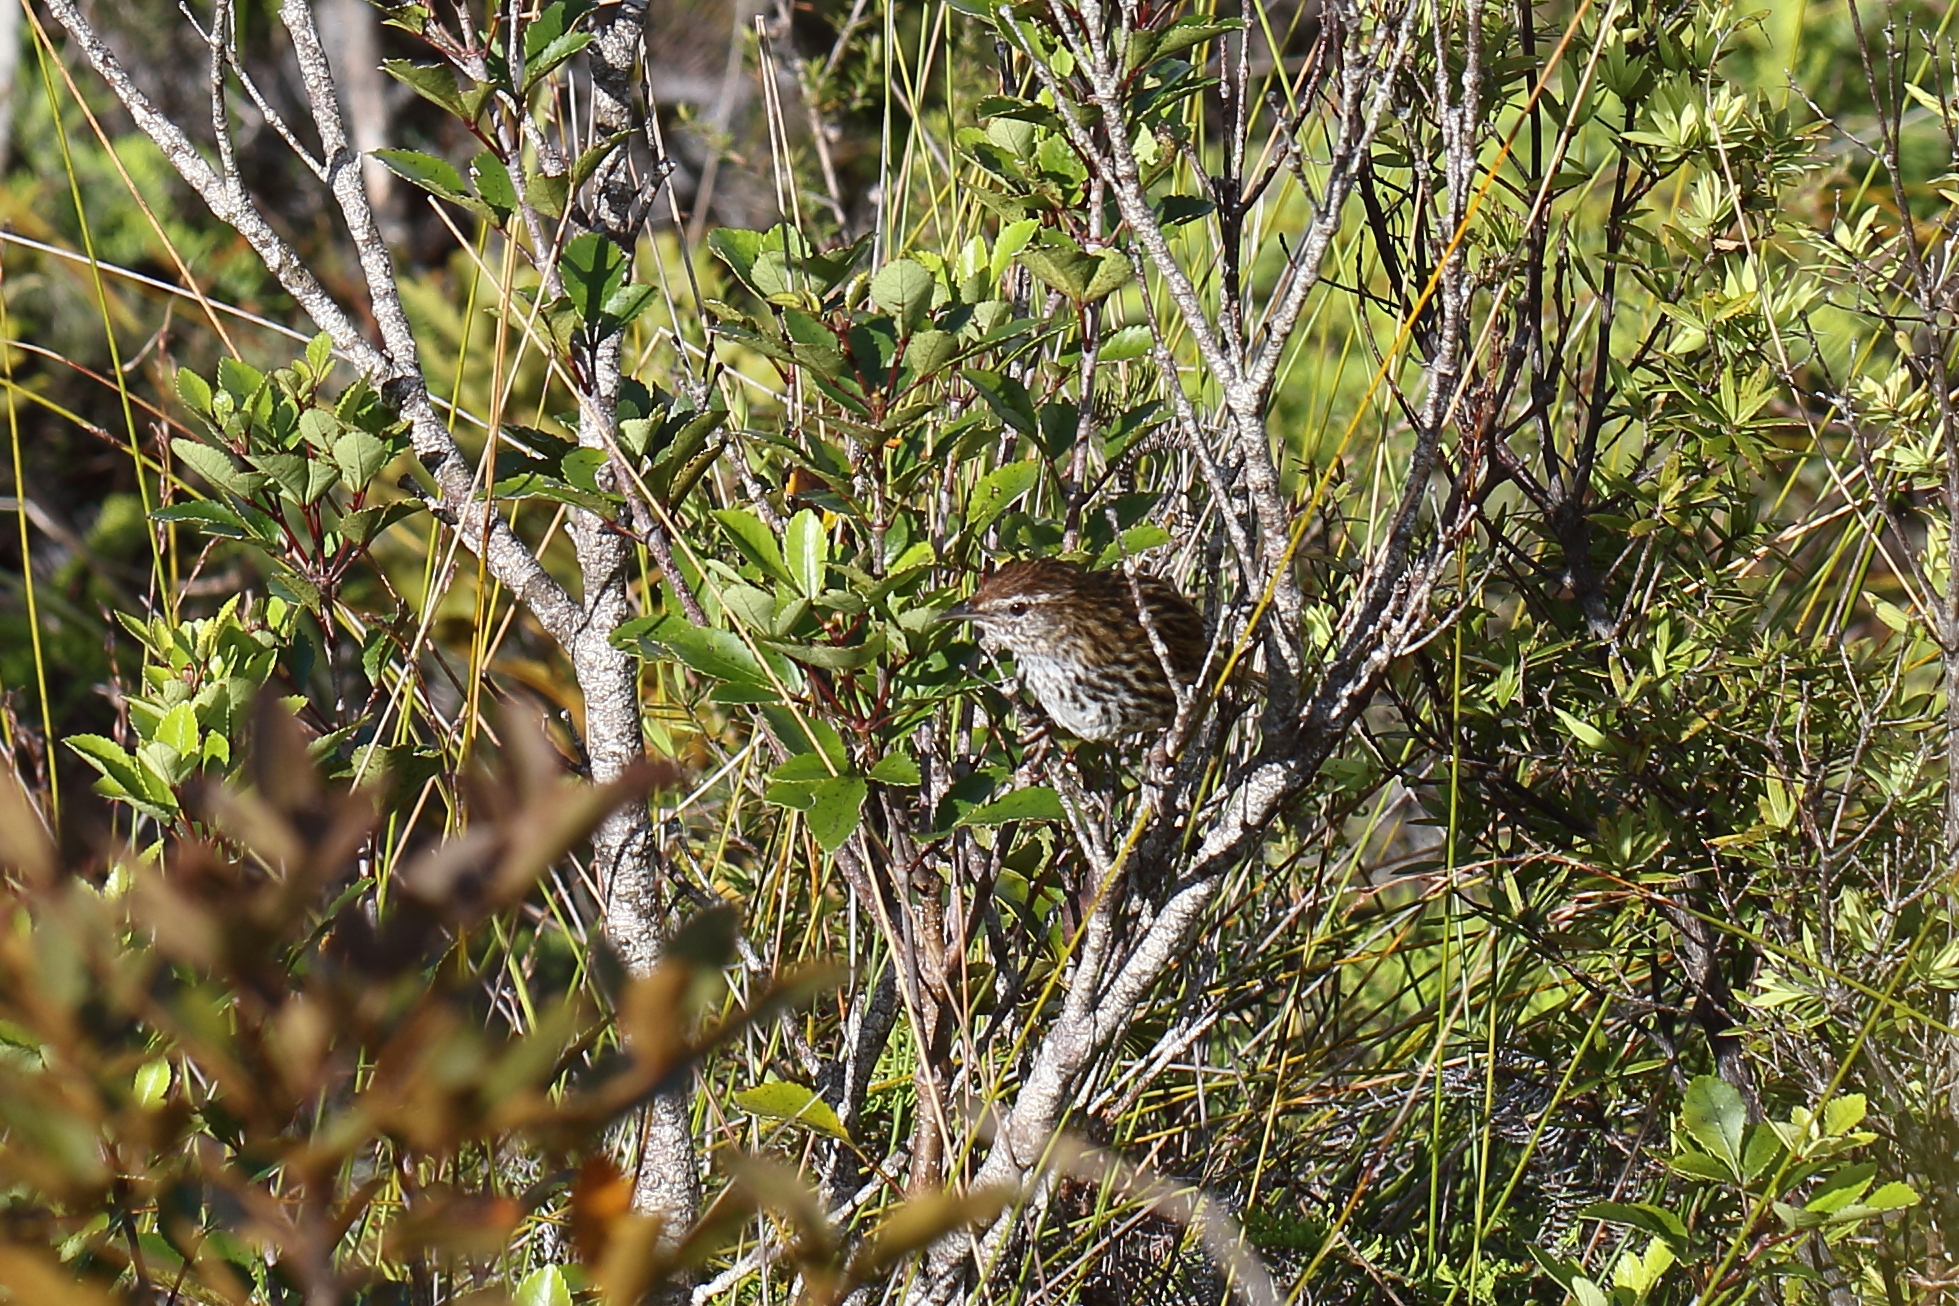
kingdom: Animalia
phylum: Chordata
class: Aves
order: Passeriformes
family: Locustellidae
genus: Megalurus
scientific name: Megalurus punctatus
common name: New zealand fernbird
